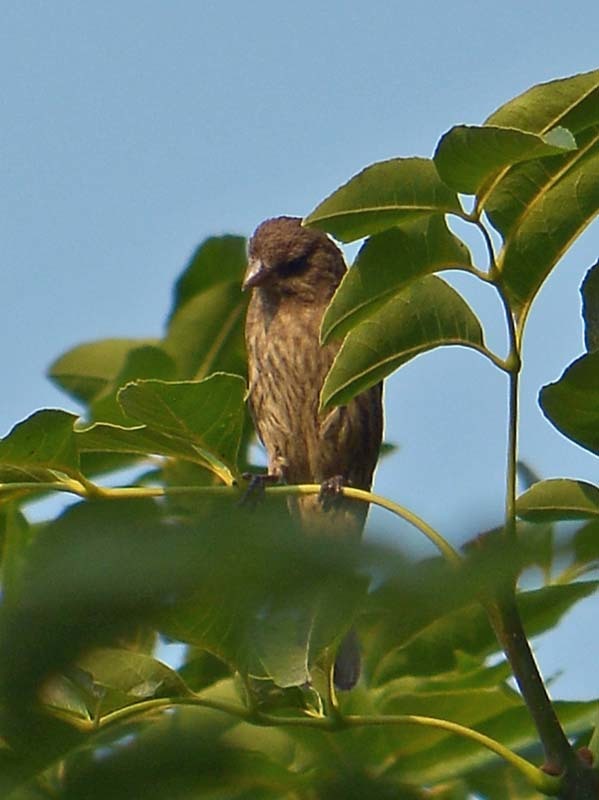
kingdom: Animalia
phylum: Chordata
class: Aves
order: Passeriformes
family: Fringillidae
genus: Haemorhous
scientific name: Haemorhous mexicanus
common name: House finch
